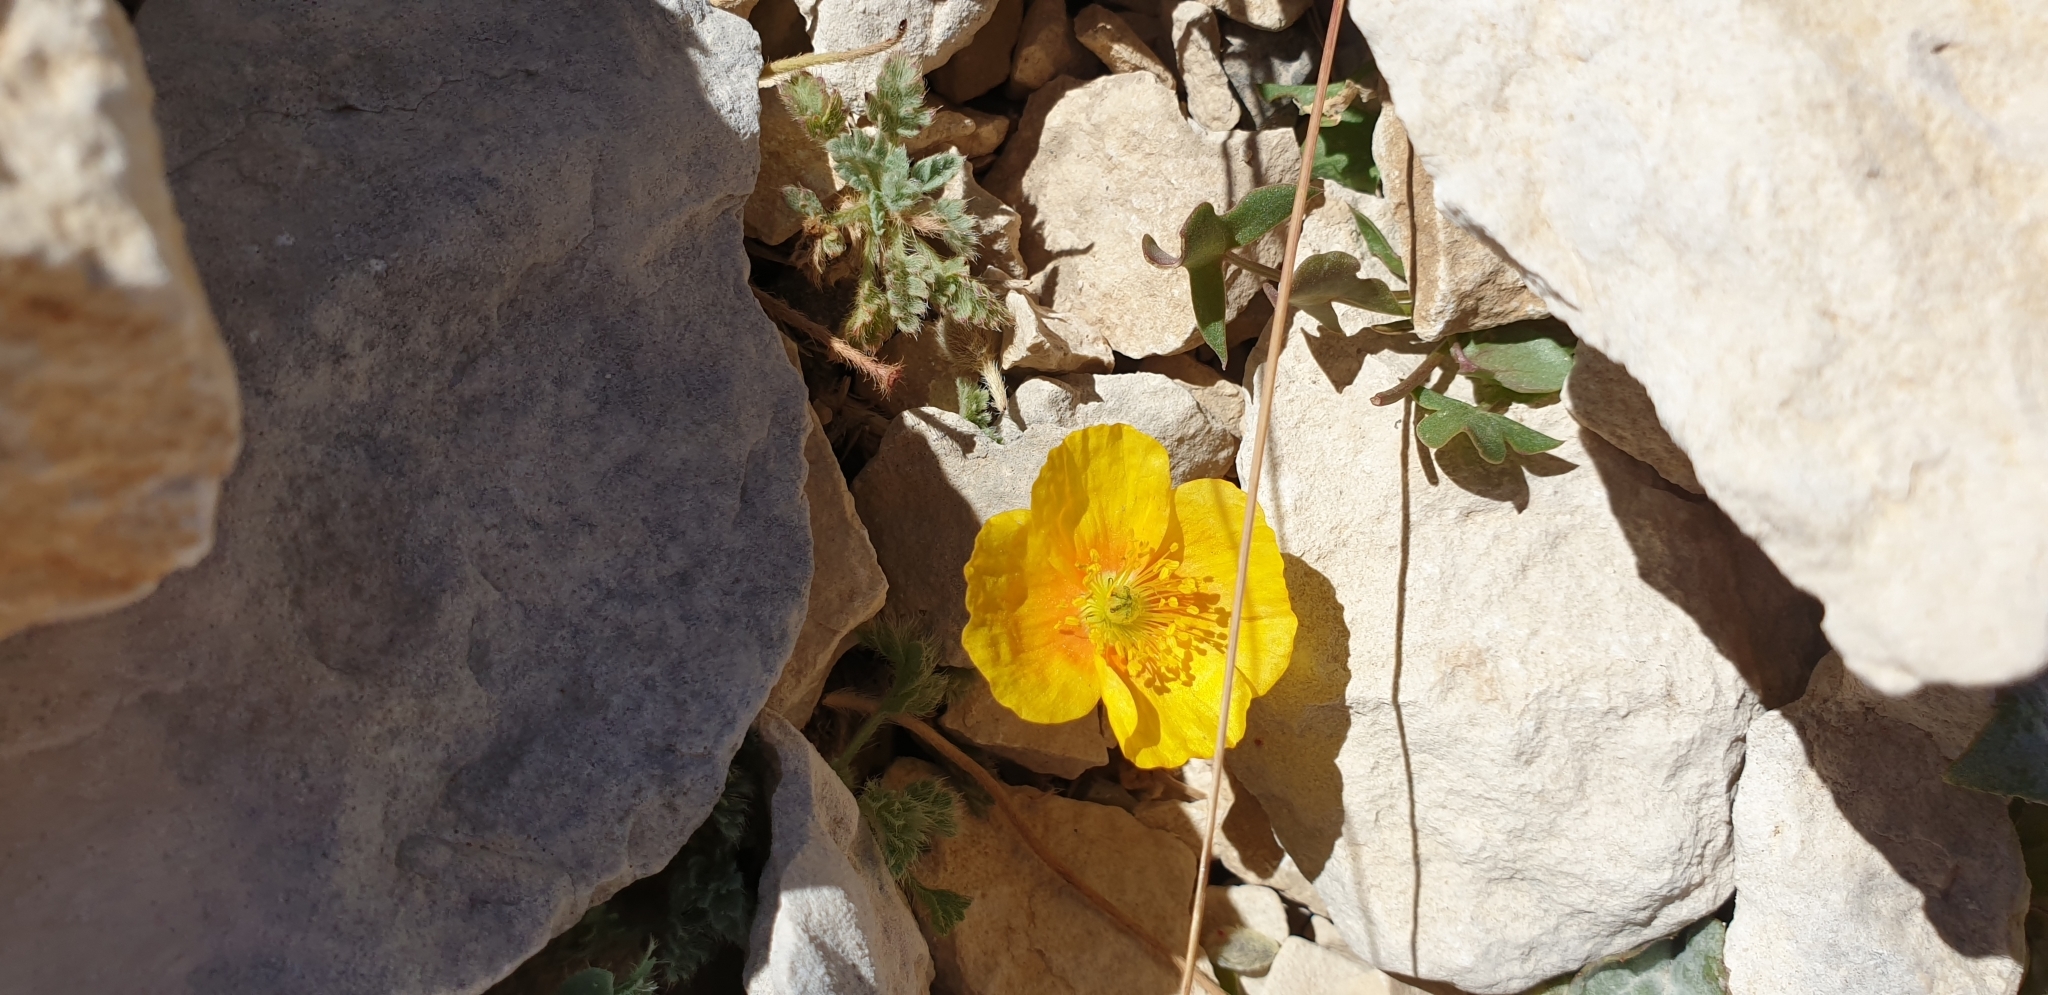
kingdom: Plantae
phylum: Tracheophyta
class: Magnoliopsida
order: Ranunculales
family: Papaveraceae
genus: Papaver
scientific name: Papaver alpinum
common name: Austrian poppy
